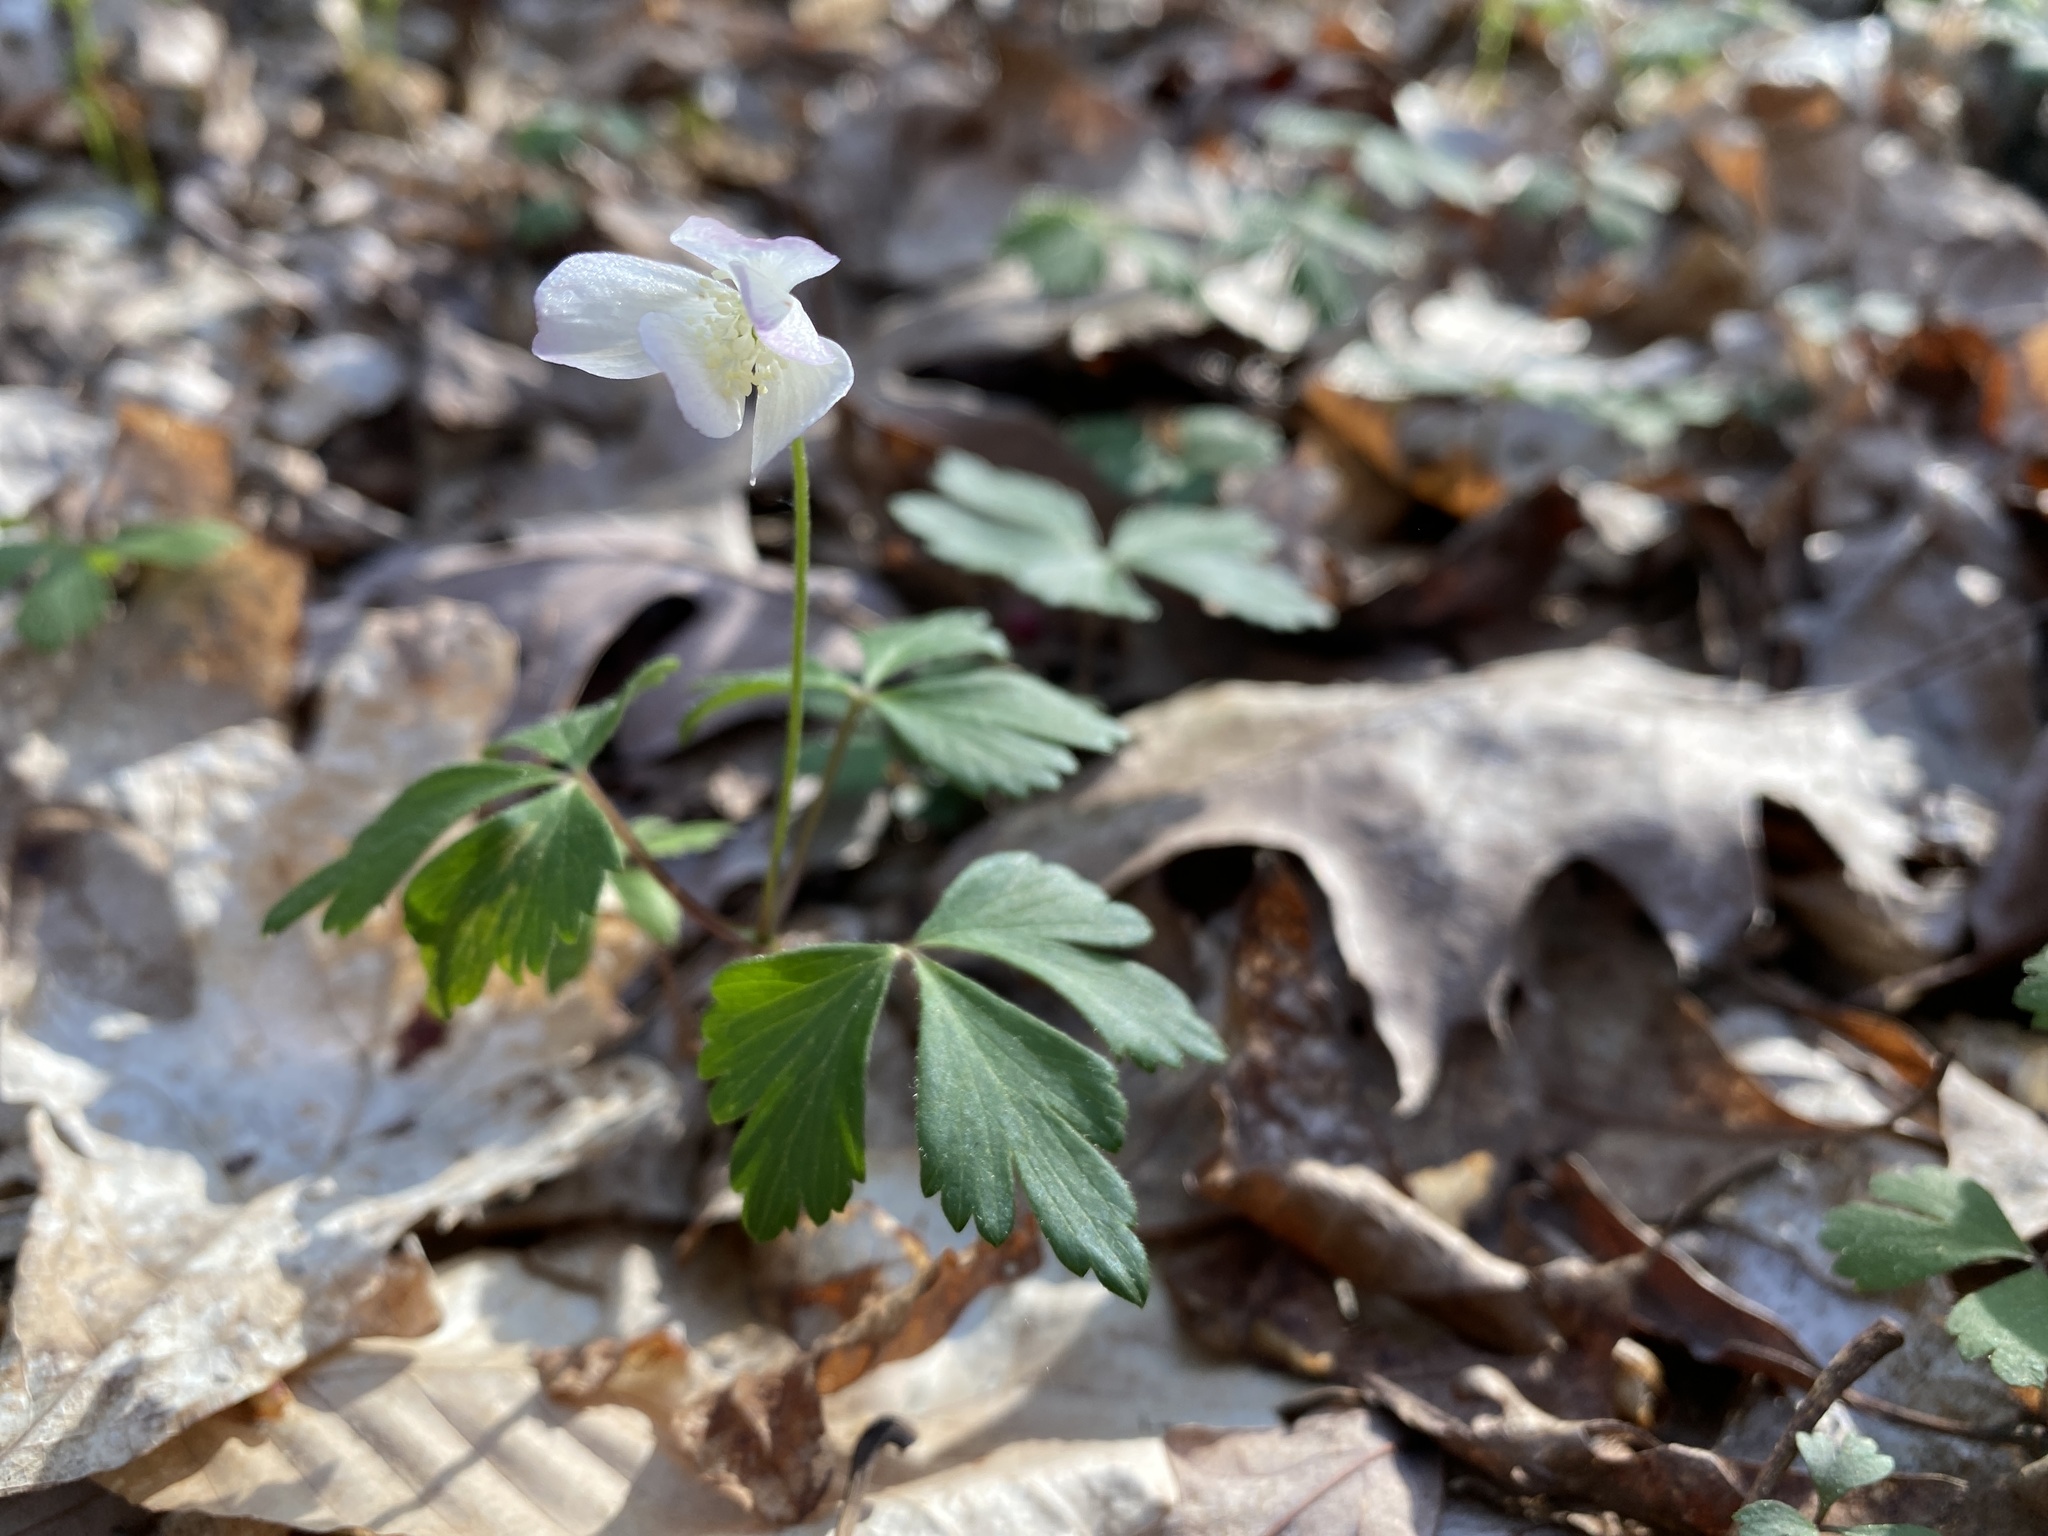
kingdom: Plantae
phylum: Tracheophyta
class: Magnoliopsida
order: Ranunculales
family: Ranunculaceae
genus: Anemone
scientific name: Anemone quinquefolia
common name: Wood anemone
